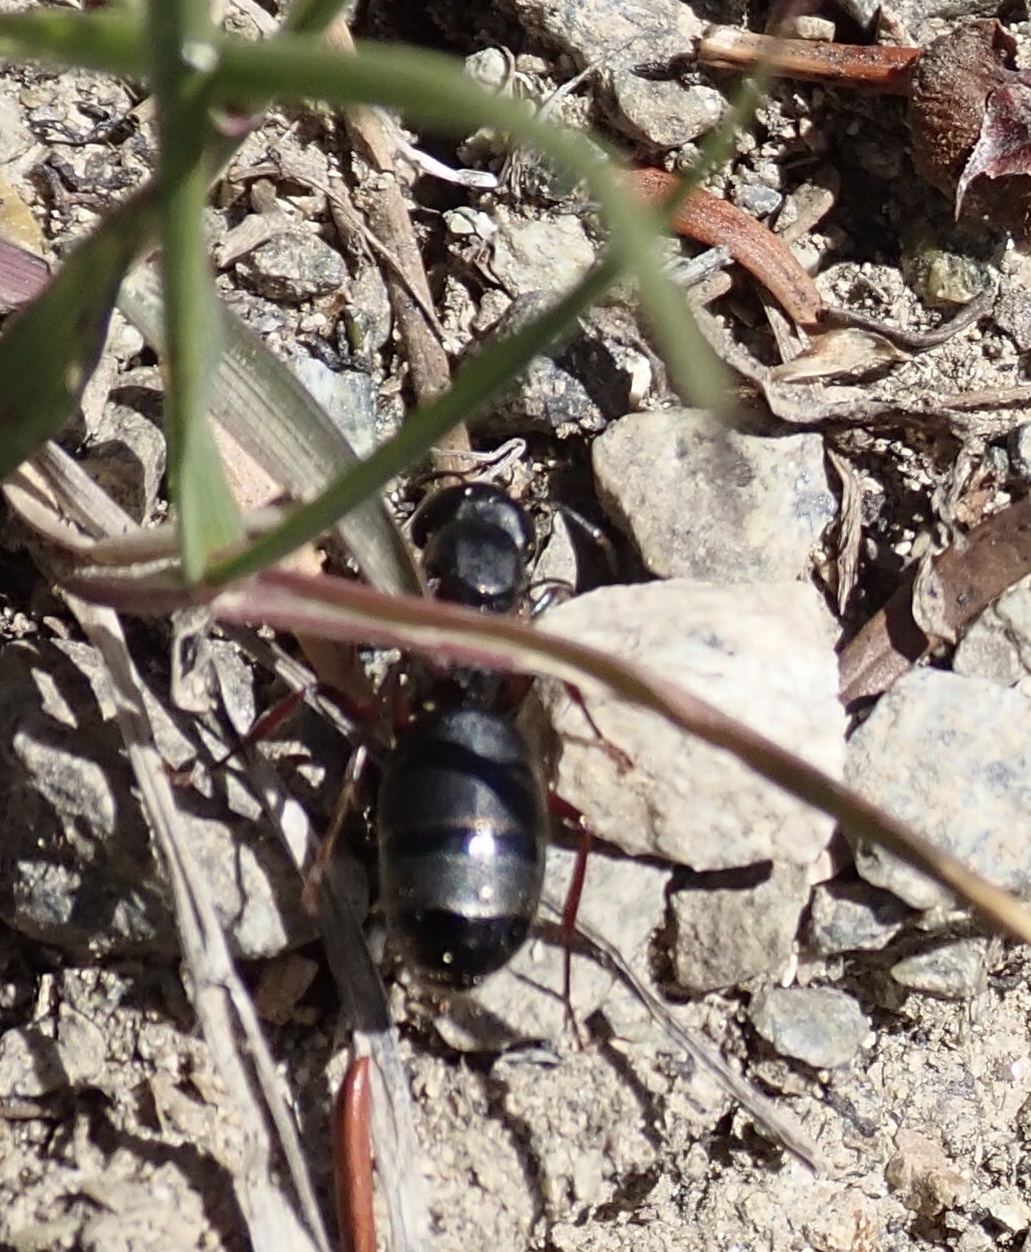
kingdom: Animalia
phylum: Arthropoda
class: Insecta
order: Hymenoptera
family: Formicidae
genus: Camponotus
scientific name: Camponotus modoc
